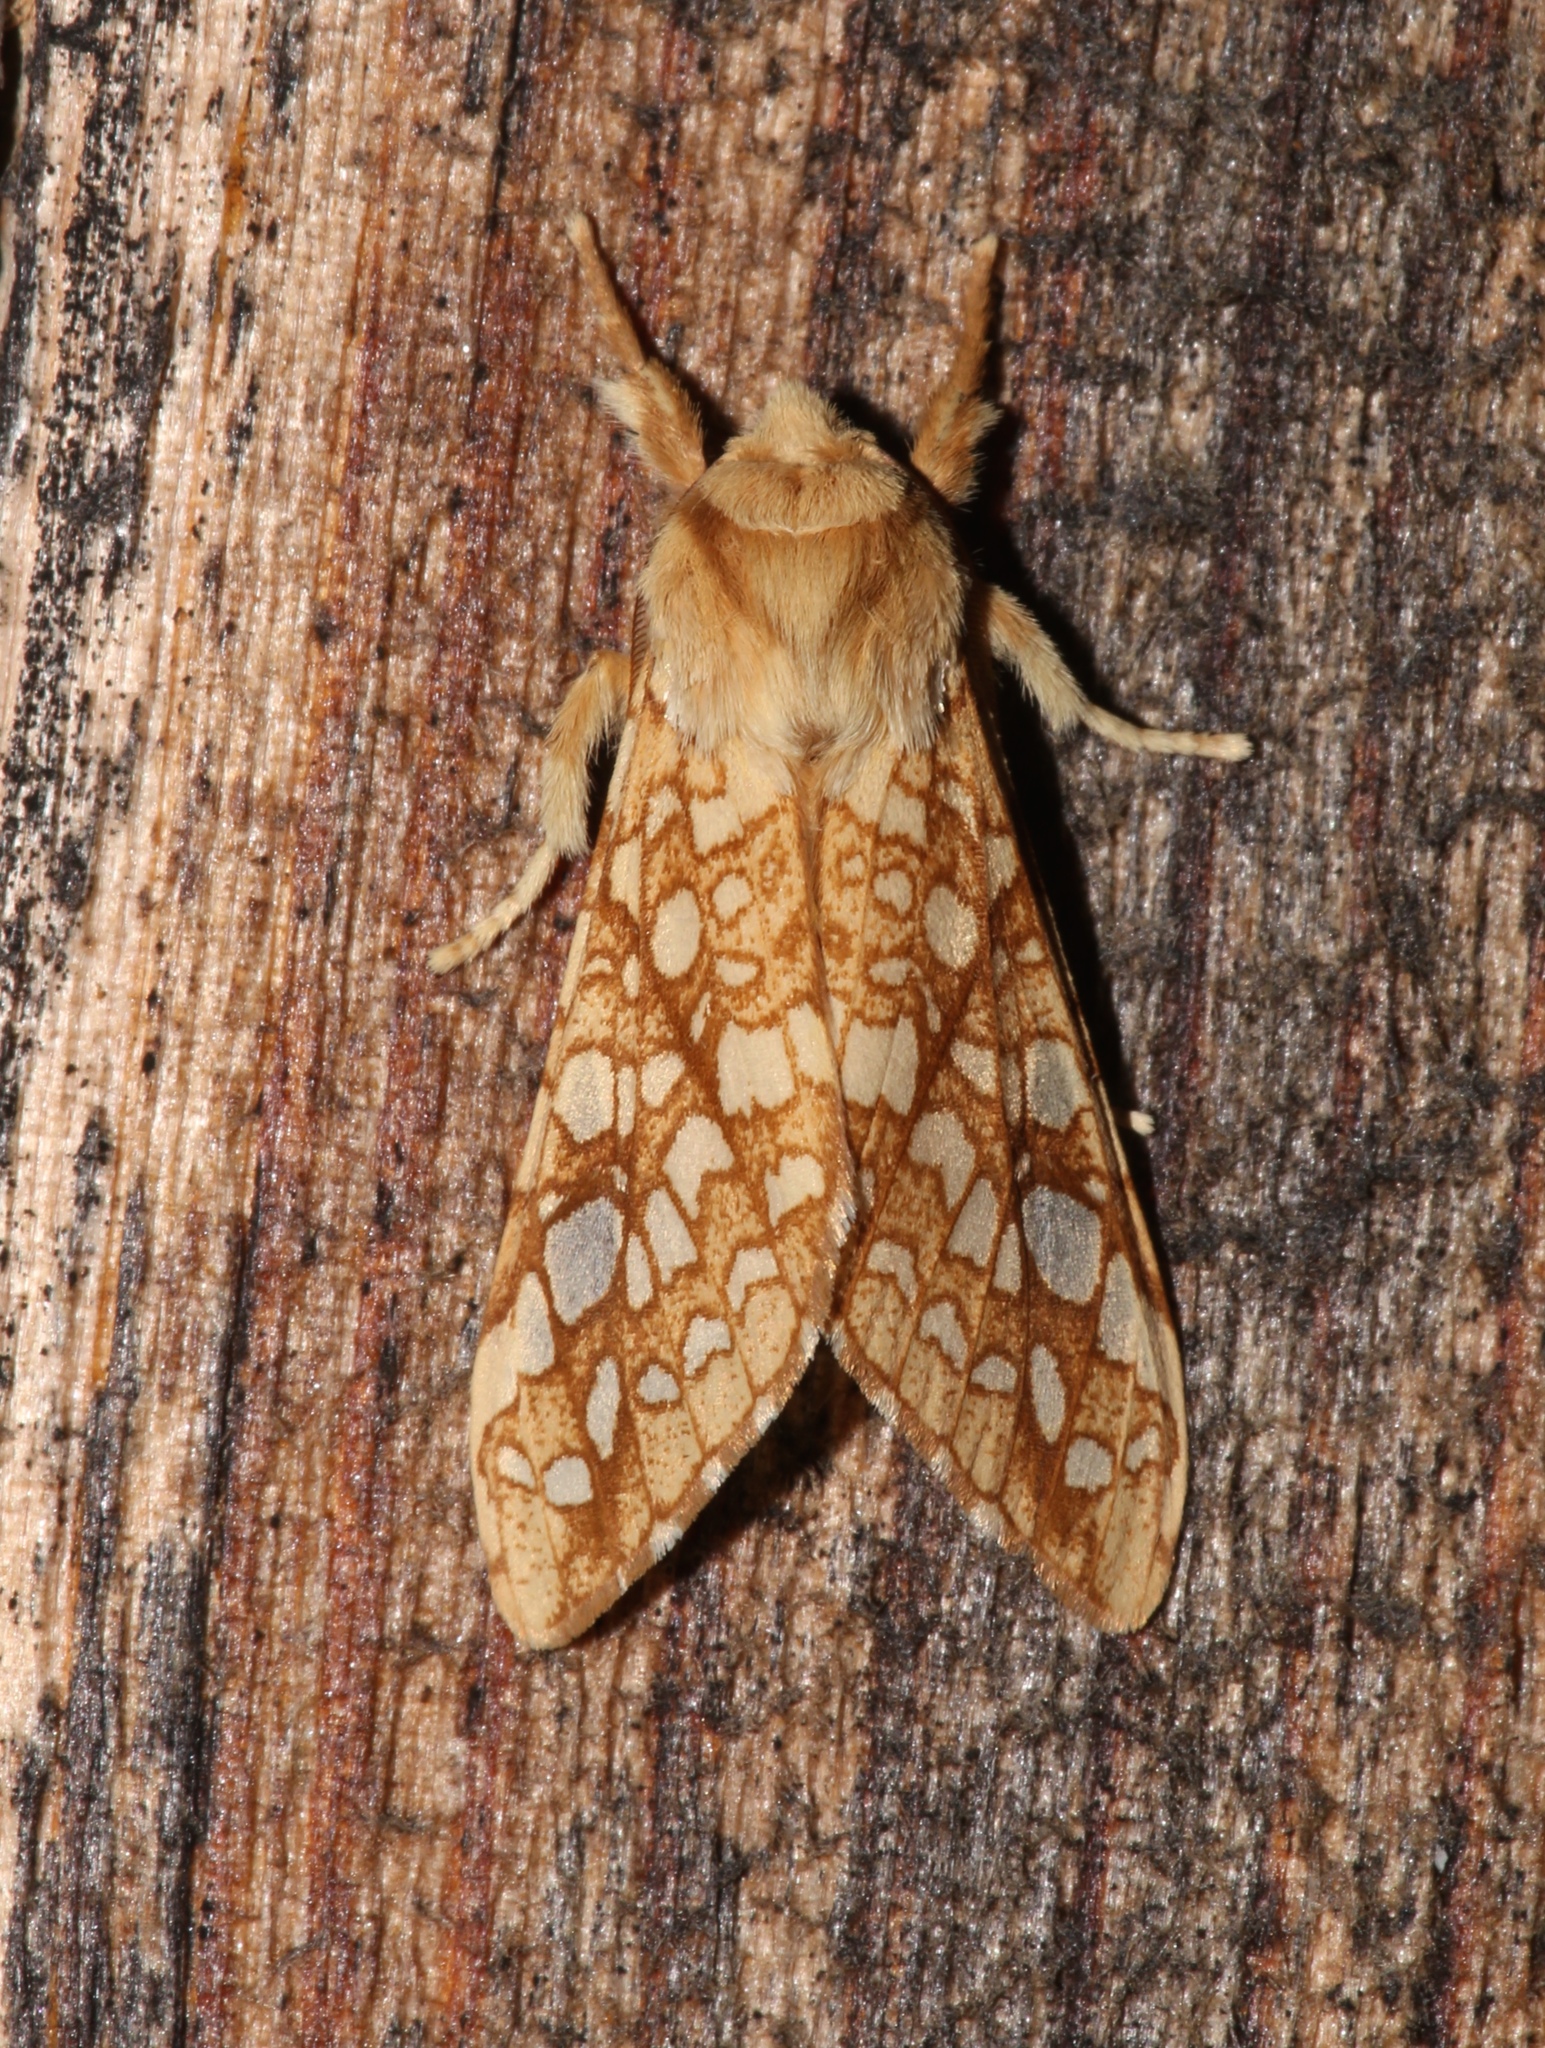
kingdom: Animalia
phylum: Arthropoda
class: Insecta
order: Lepidoptera
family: Erebidae
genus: Lophocampa
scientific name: Lophocampa caryae
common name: Hickory tussock moth
